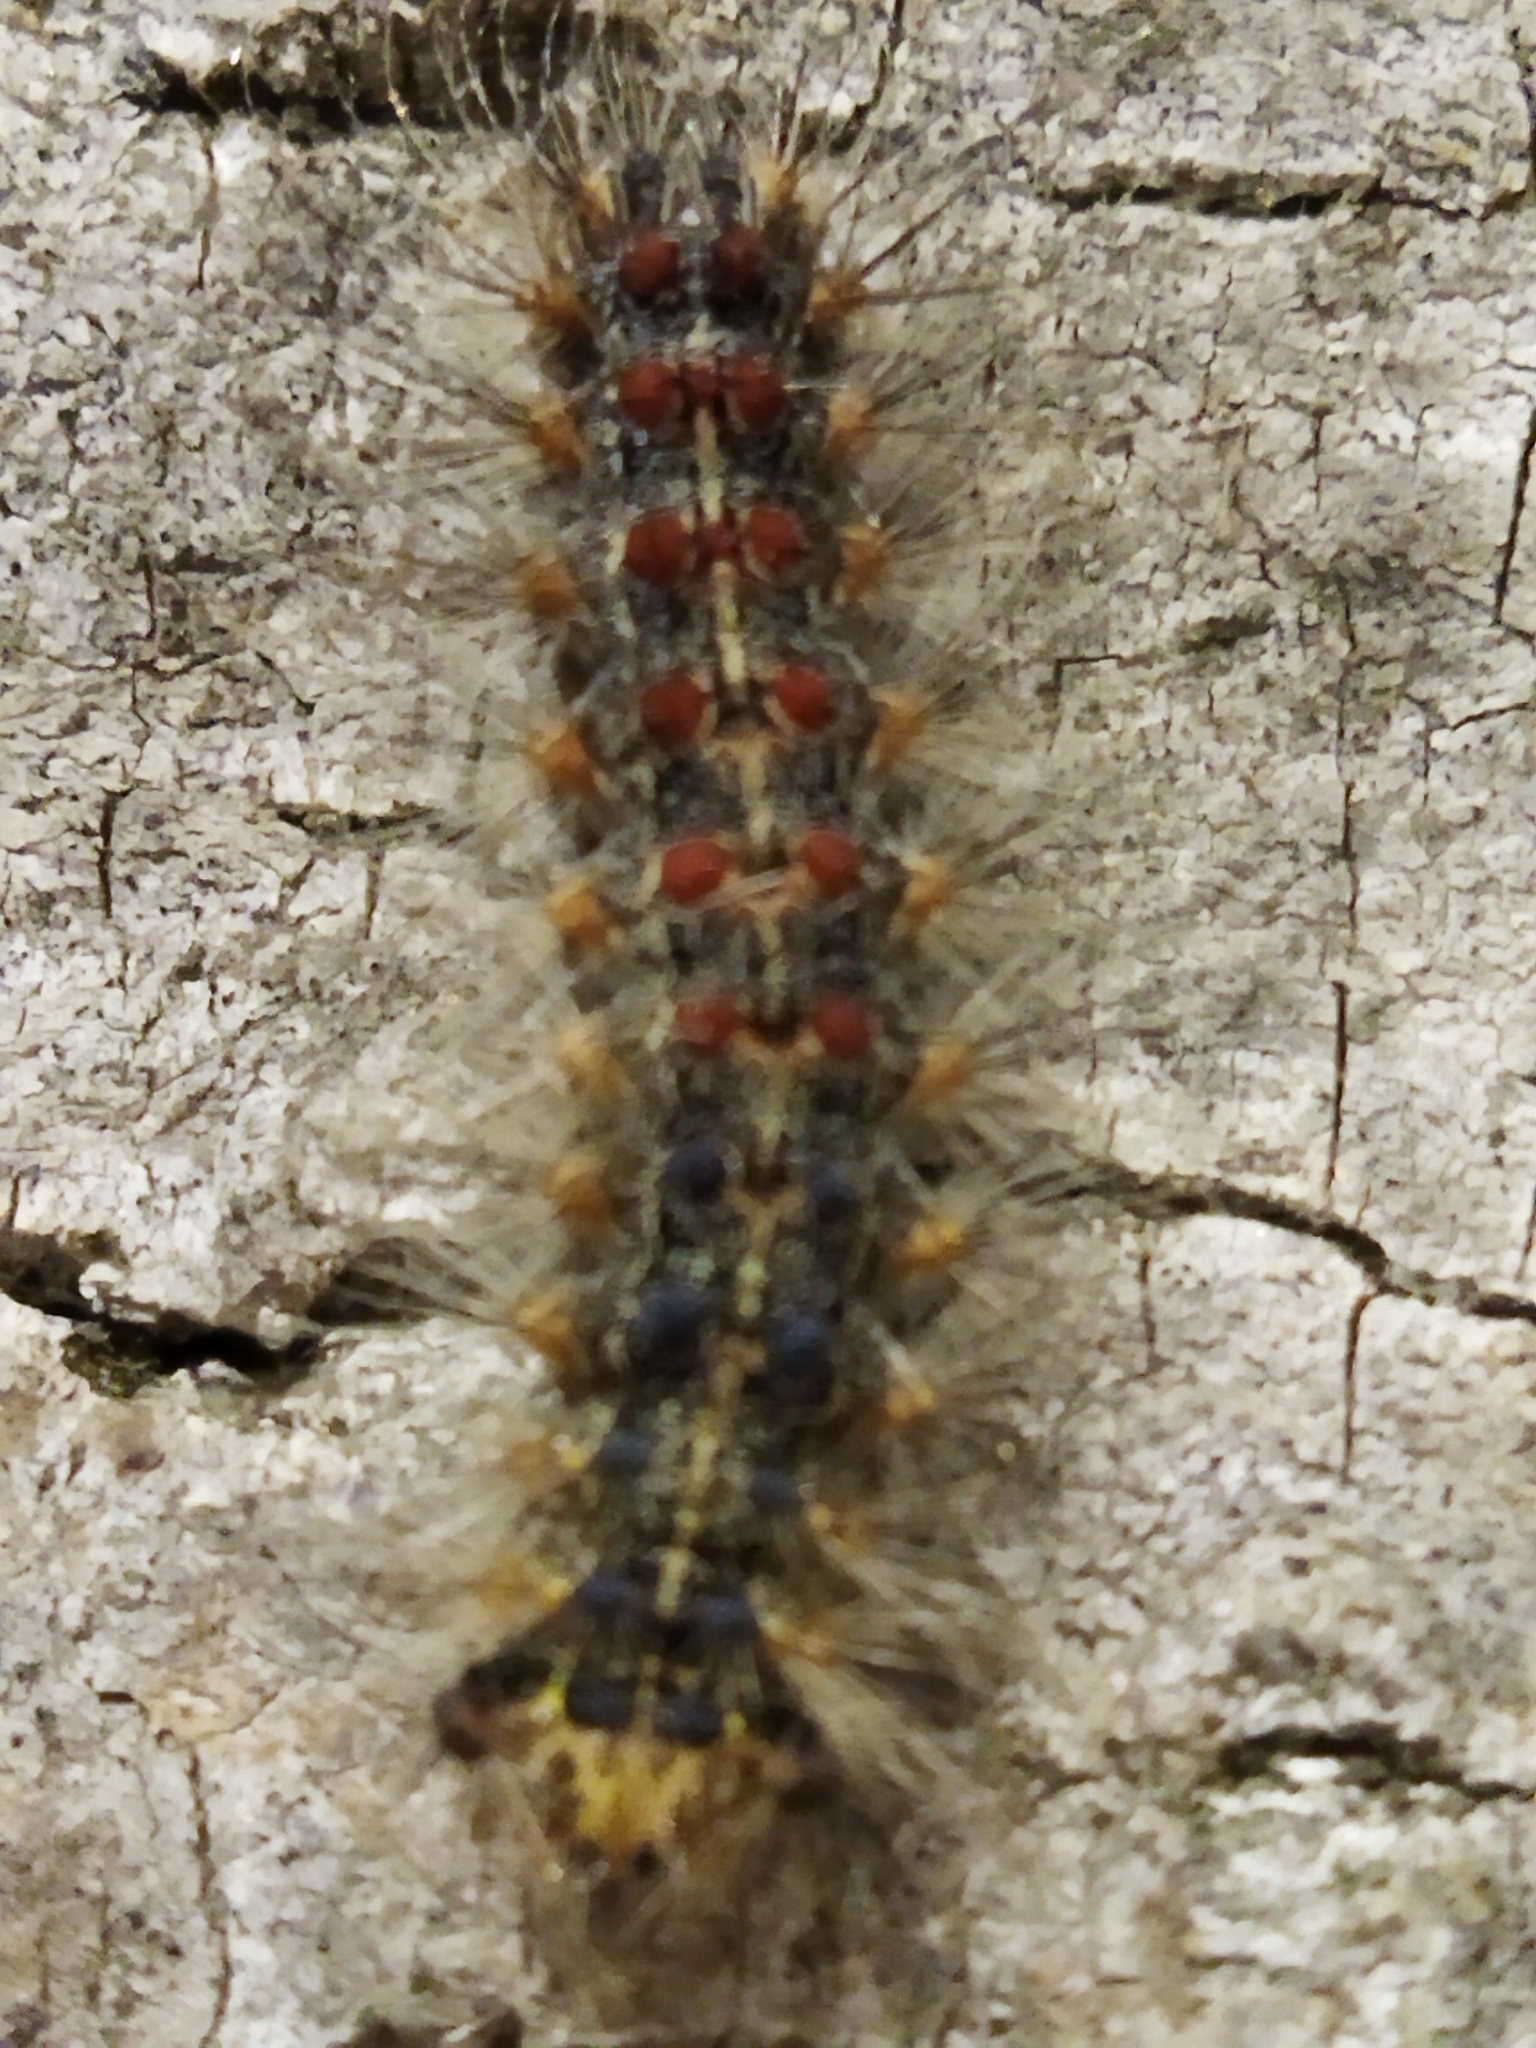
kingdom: Animalia
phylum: Arthropoda
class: Insecta
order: Lepidoptera
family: Erebidae
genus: Lymantria
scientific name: Lymantria dispar
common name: Gypsy moth
